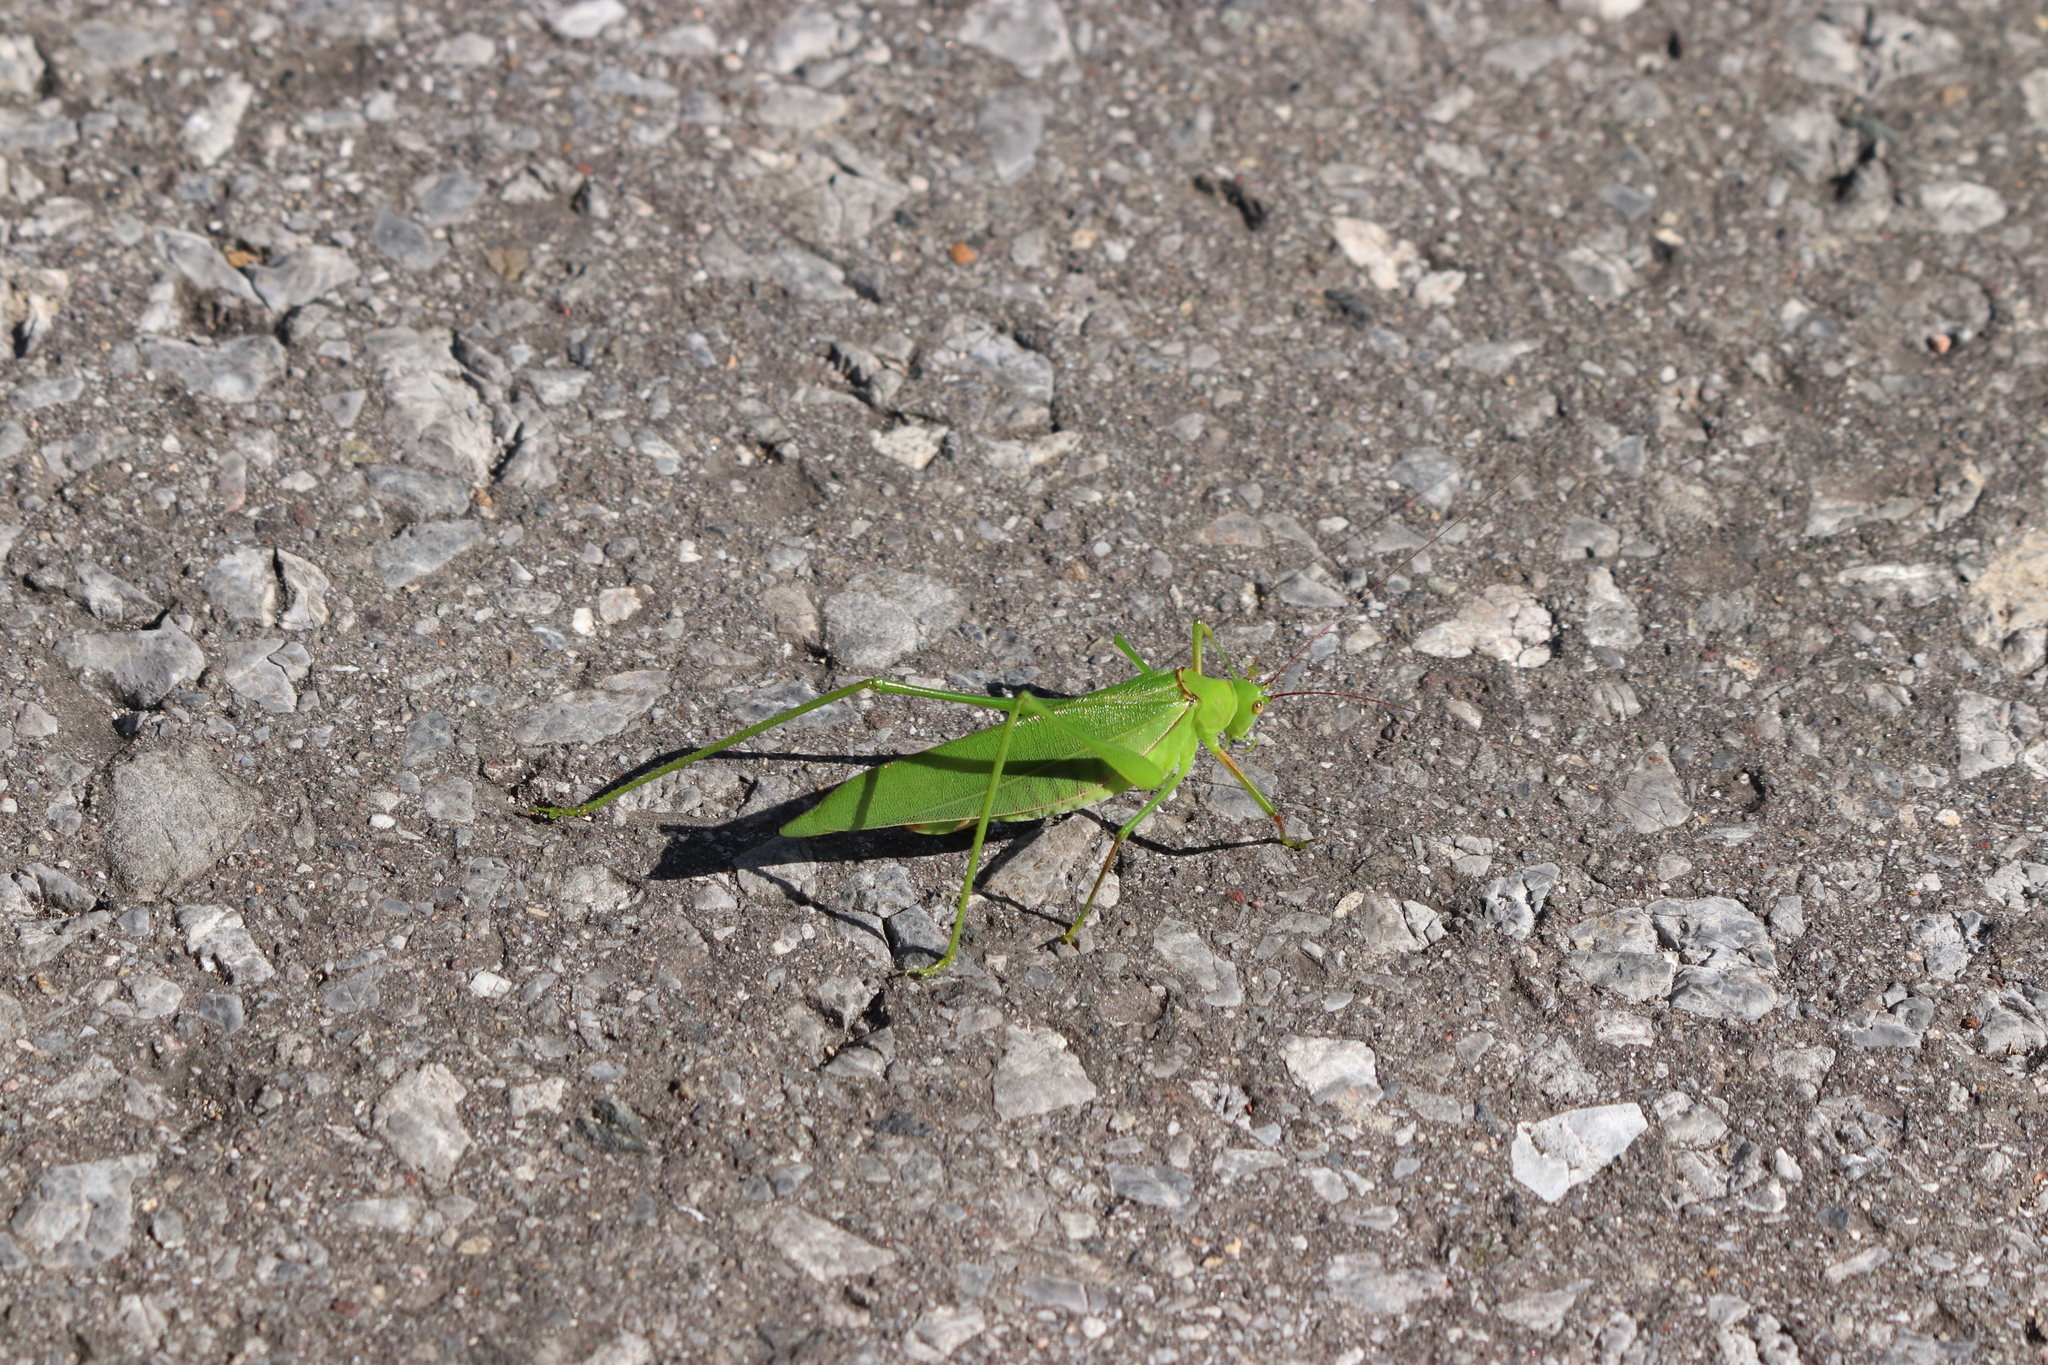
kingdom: Animalia
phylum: Arthropoda
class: Insecta
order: Orthoptera
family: Tettigoniidae
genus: Psyrana
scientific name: Psyrana japonica
